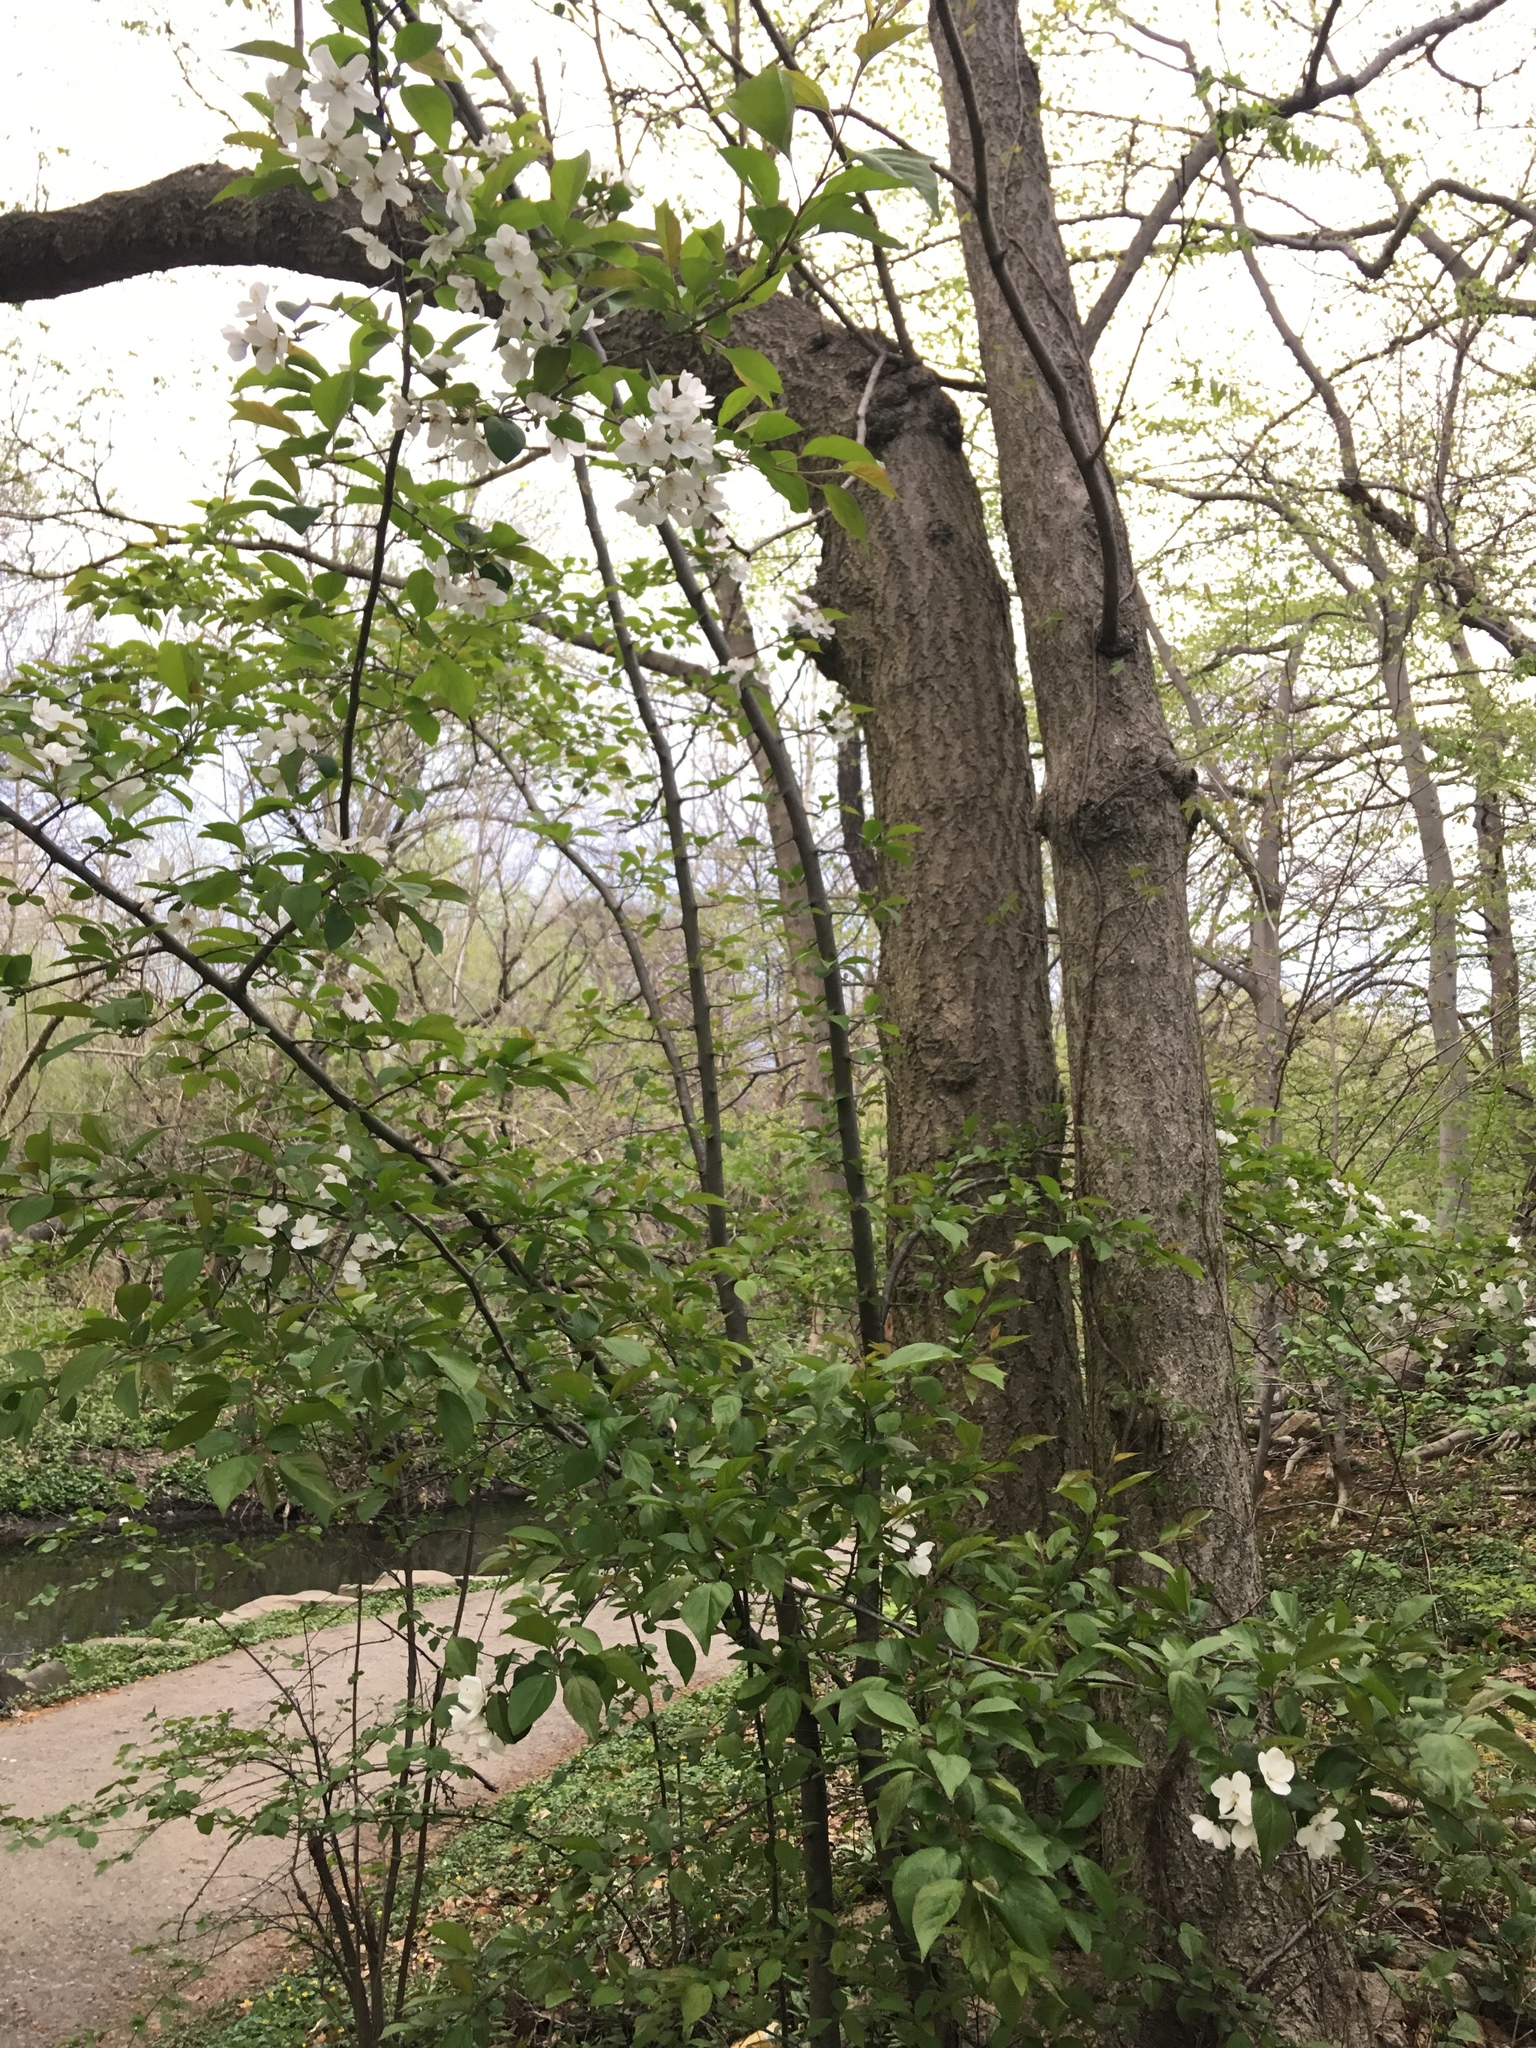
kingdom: Plantae
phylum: Tracheophyta
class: Magnoliopsida
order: Rosales
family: Rosaceae
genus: Malus
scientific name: Malus hupehensis
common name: Chinese crab apple
